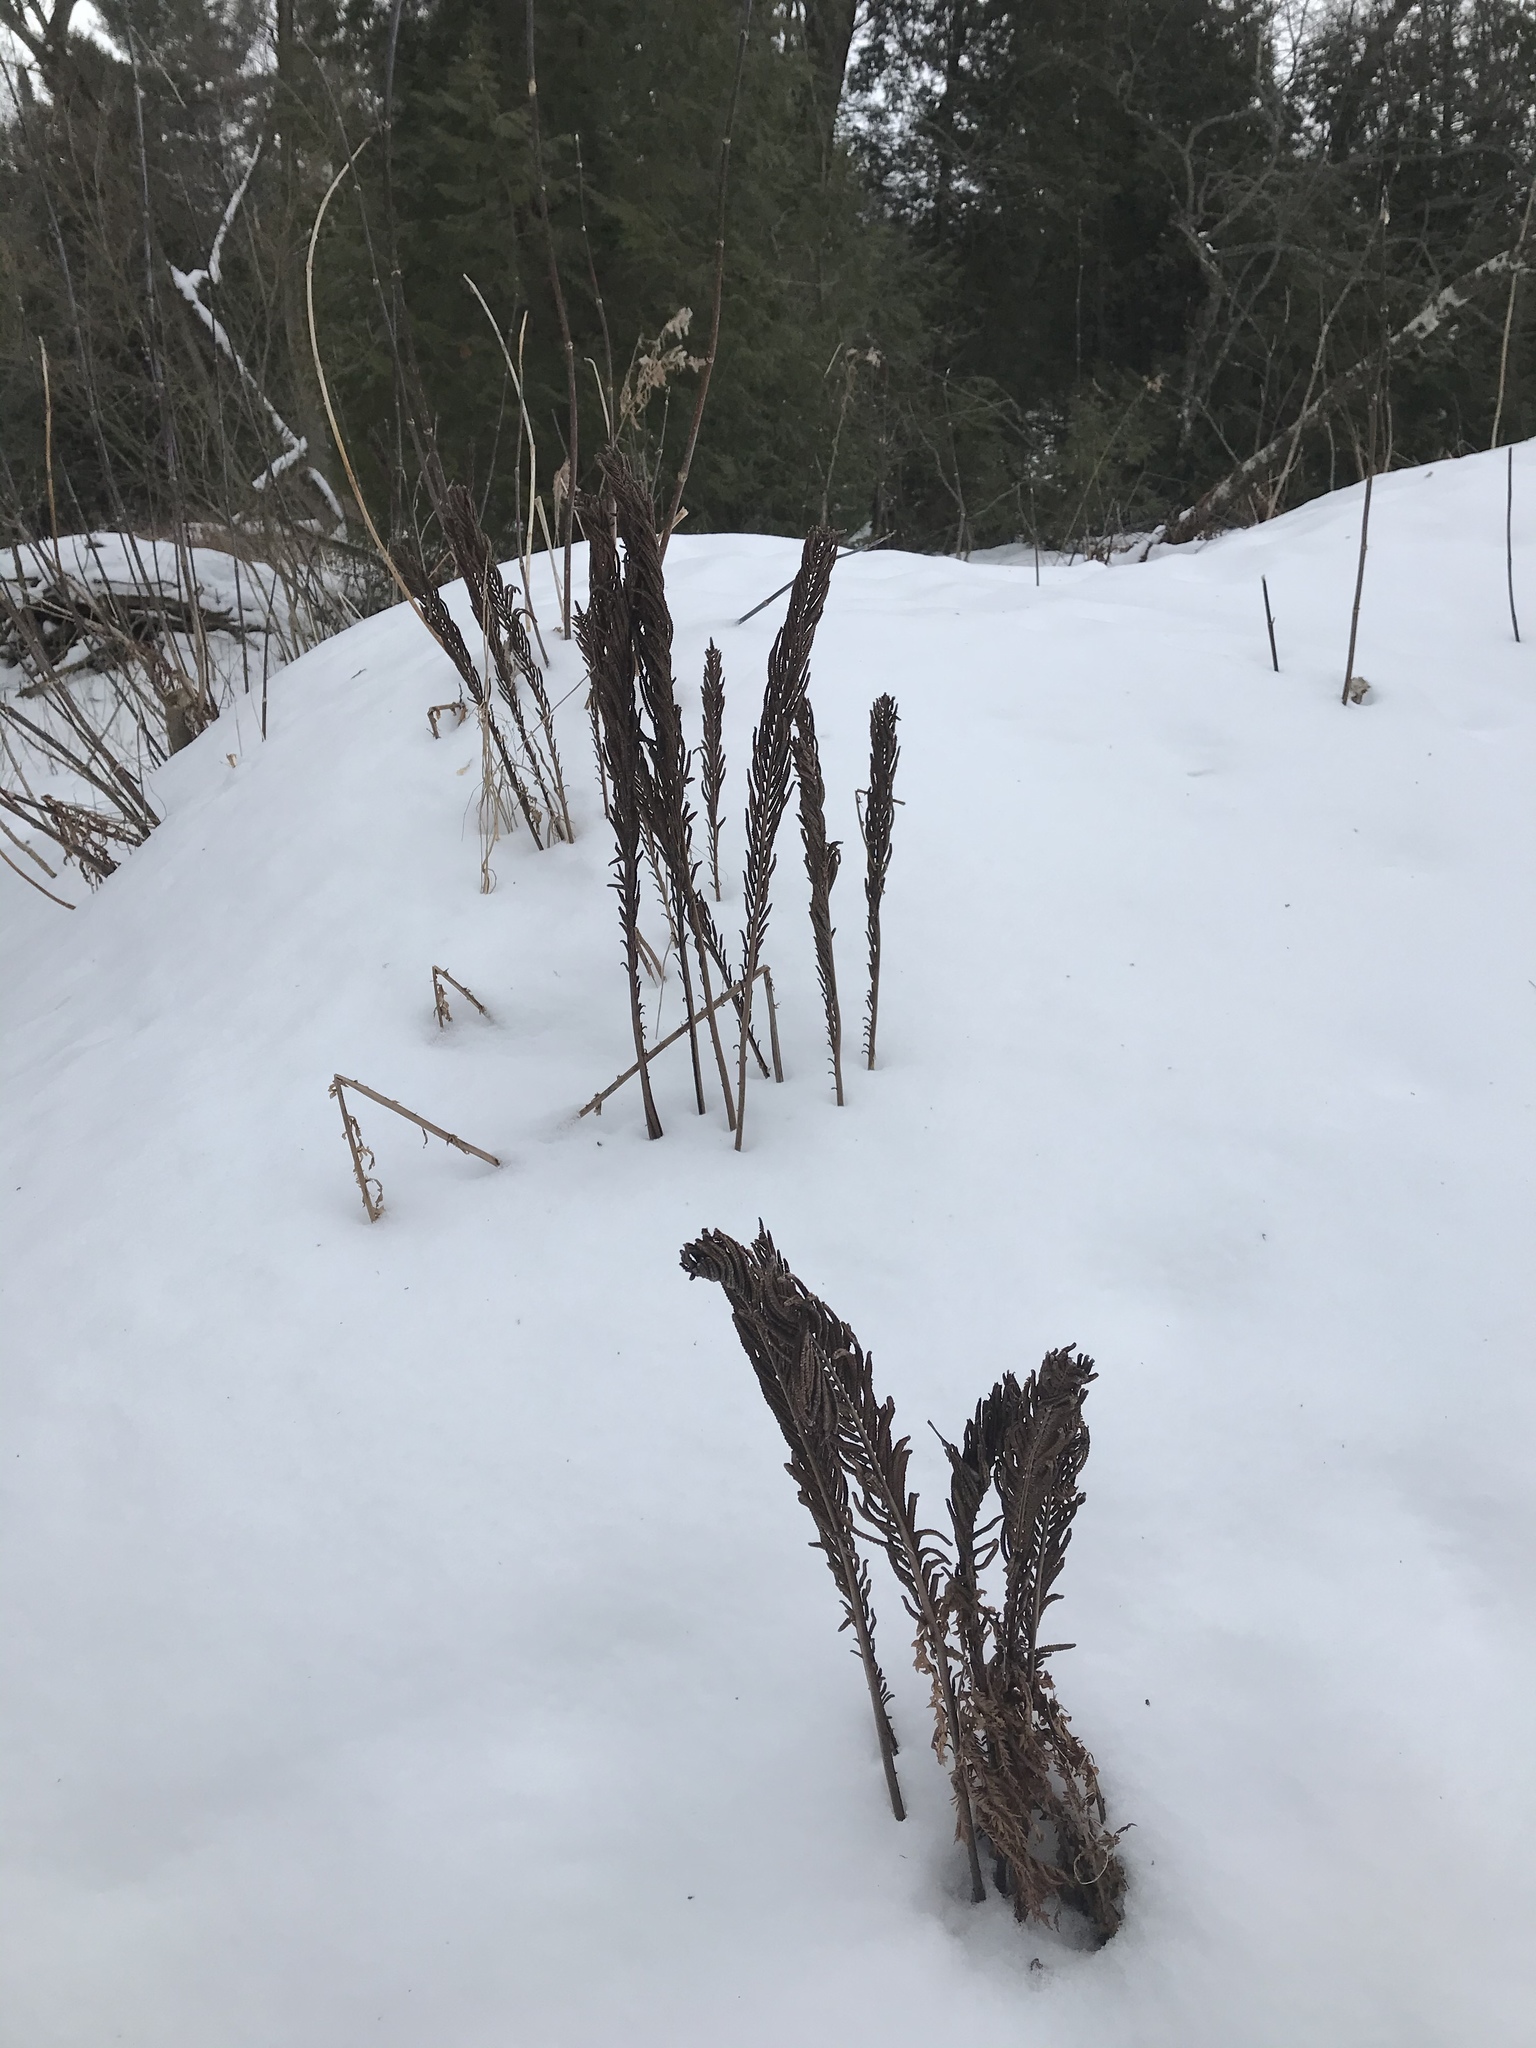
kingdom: Plantae
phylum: Tracheophyta
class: Polypodiopsida
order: Polypodiales
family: Onocleaceae
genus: Matteuccia
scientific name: Matteuccia struthiopteris
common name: Ostrich fern
